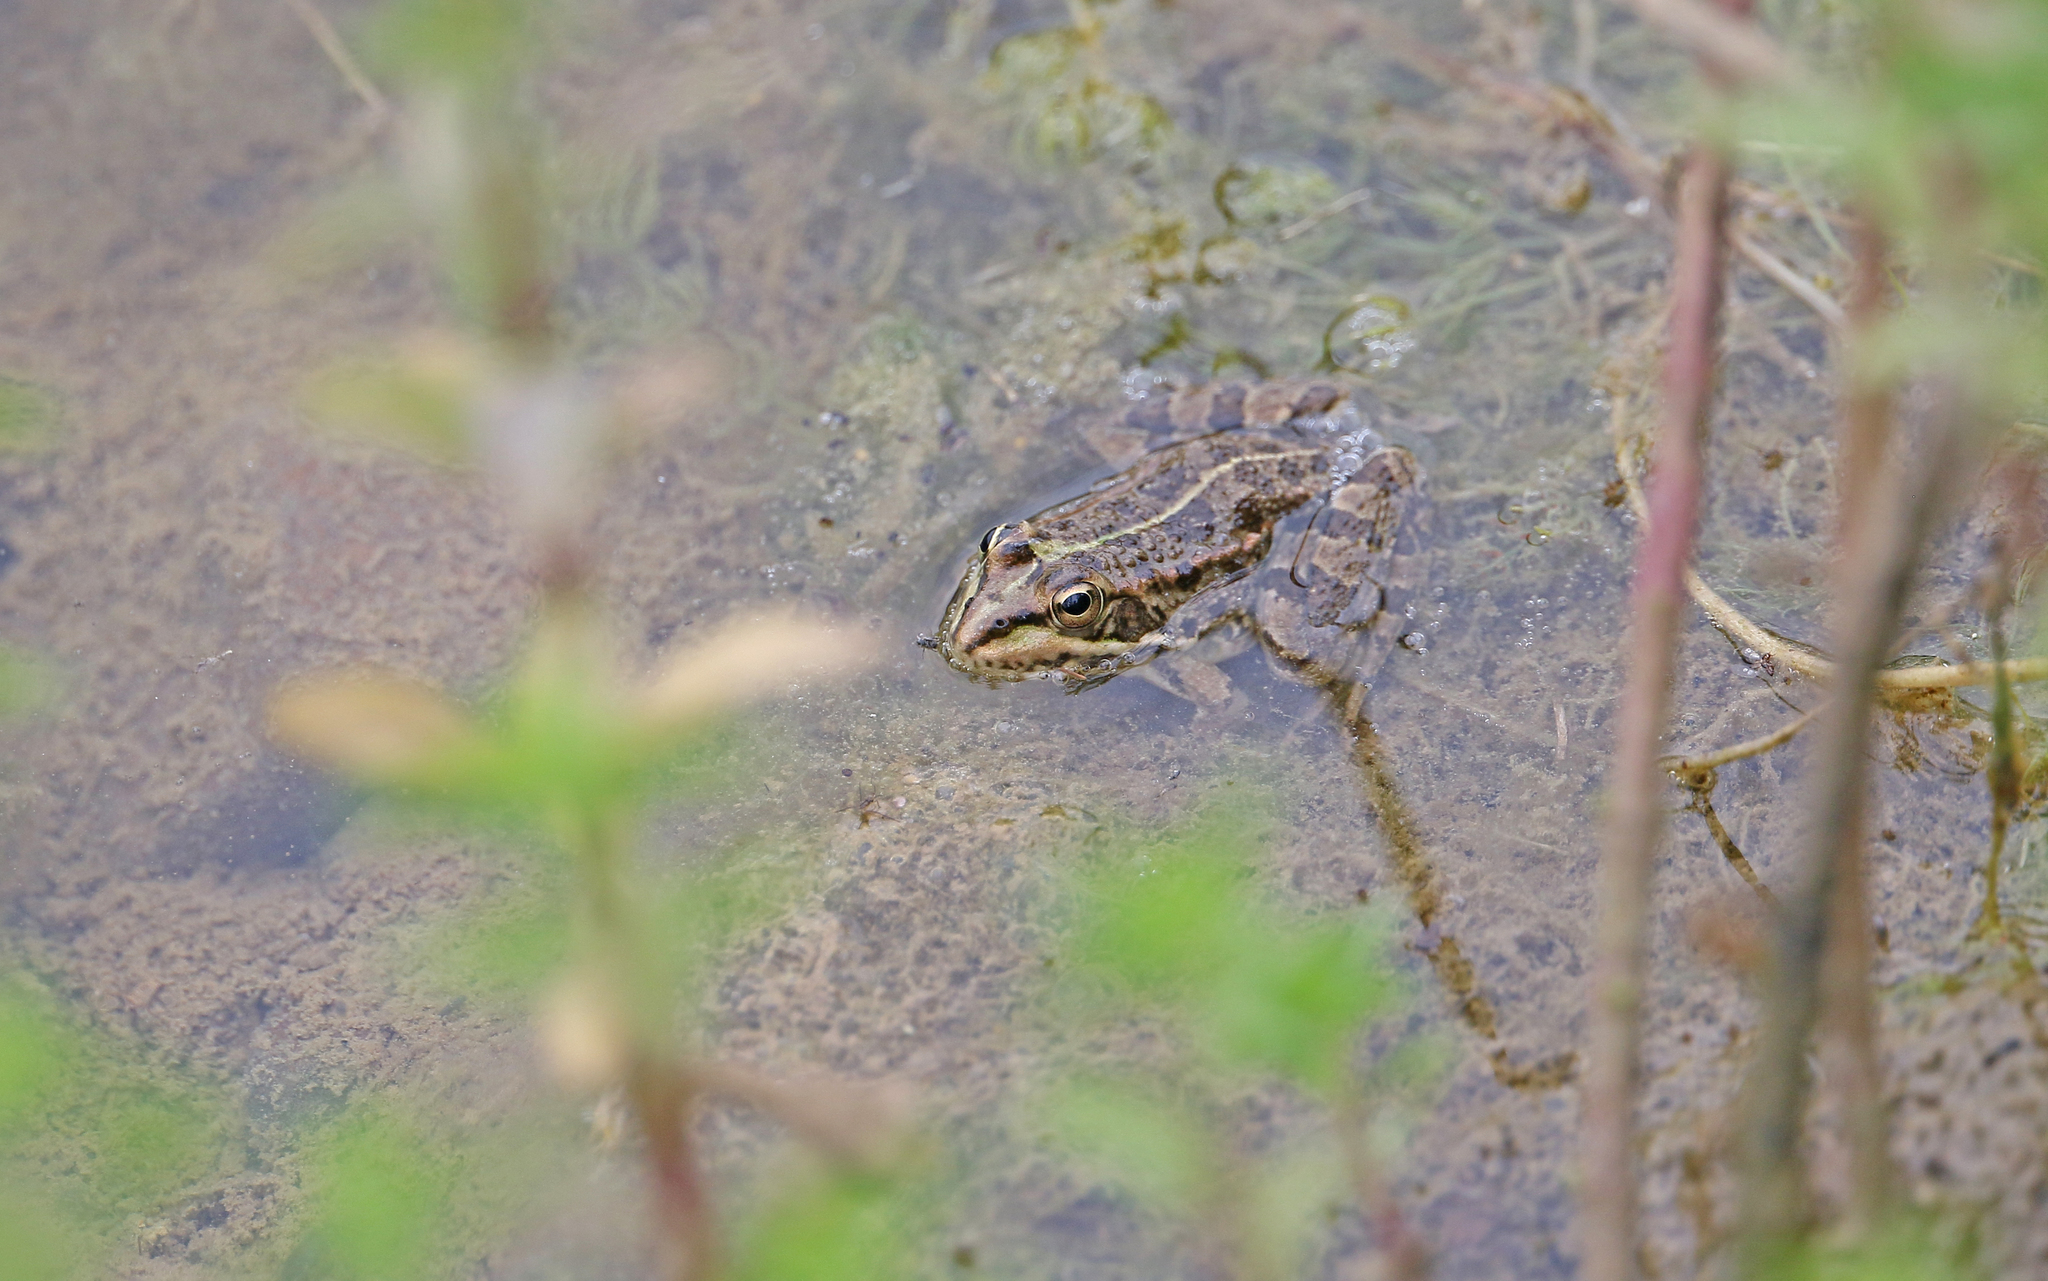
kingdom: Animalia
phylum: Chordata
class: Amphibia
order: Anura
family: Ranidae
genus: Pelophylax
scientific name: Pelophylax perezi
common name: Perez's frog
